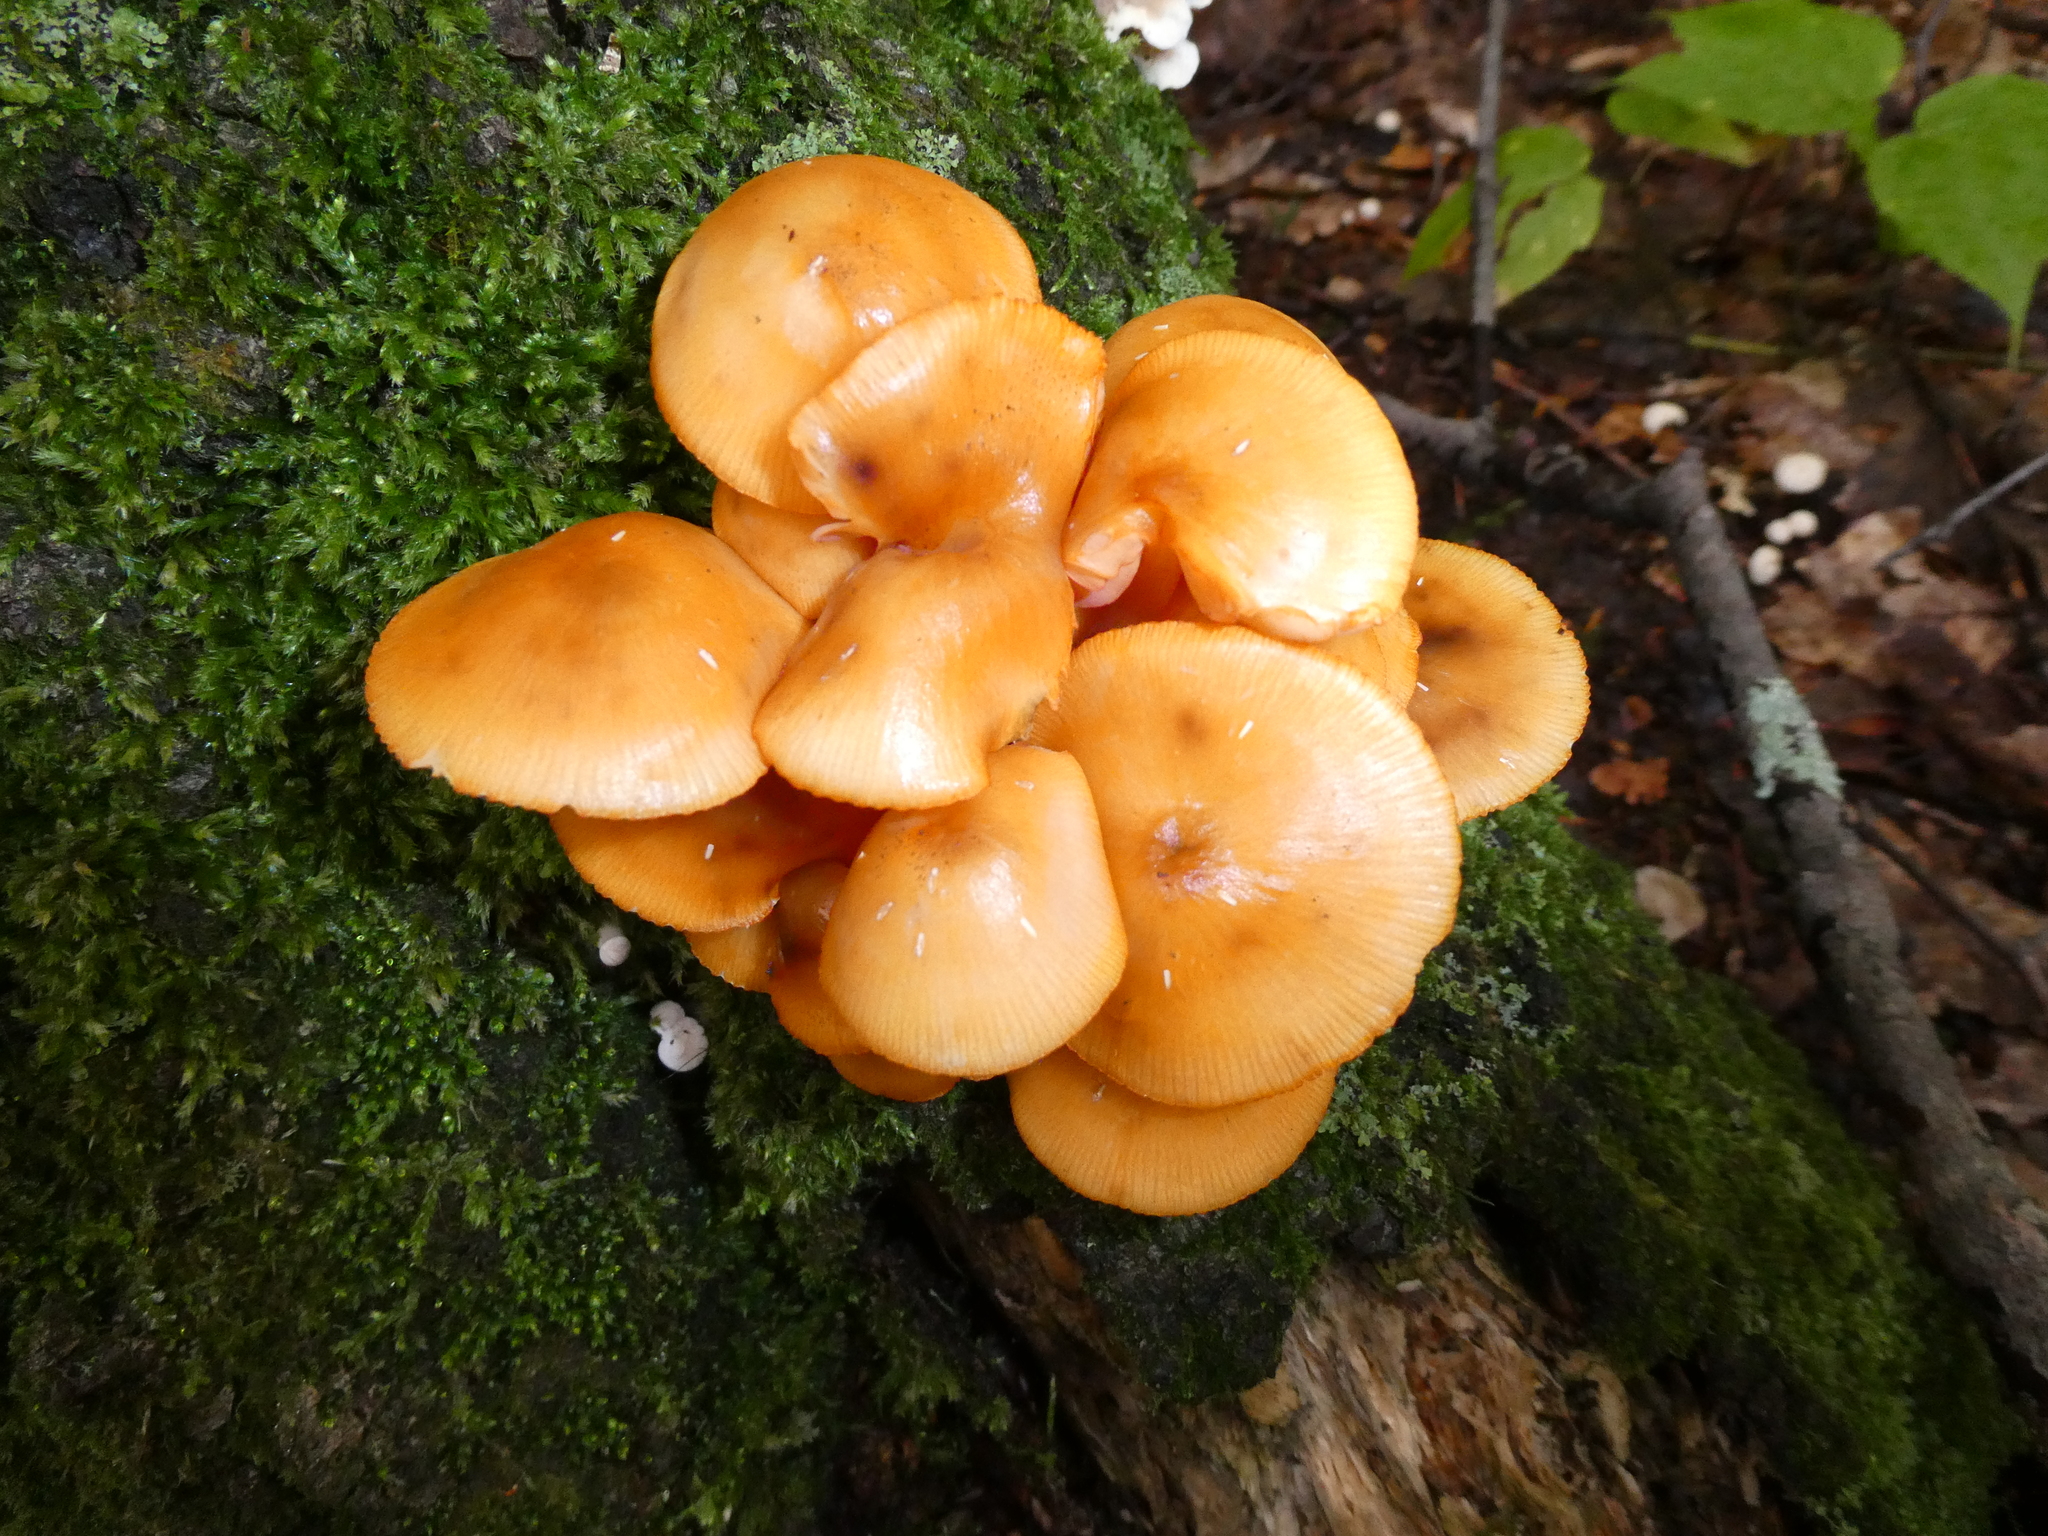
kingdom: Fungi
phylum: Basidiomycota
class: Agaricomycetes
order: Agaricales
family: Mycenaceae
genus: Mycena
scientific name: Mycena leaiana
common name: Orange mycena
